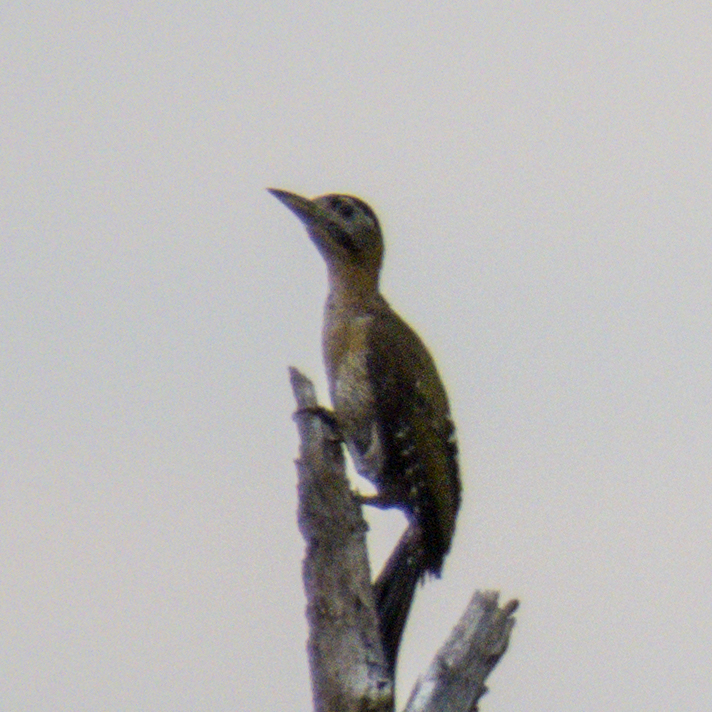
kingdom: Animalia
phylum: Chordata
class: Aves
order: Piciformes
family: Picidae
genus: Picus
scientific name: Picus vittatus
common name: Laced woodpecker
